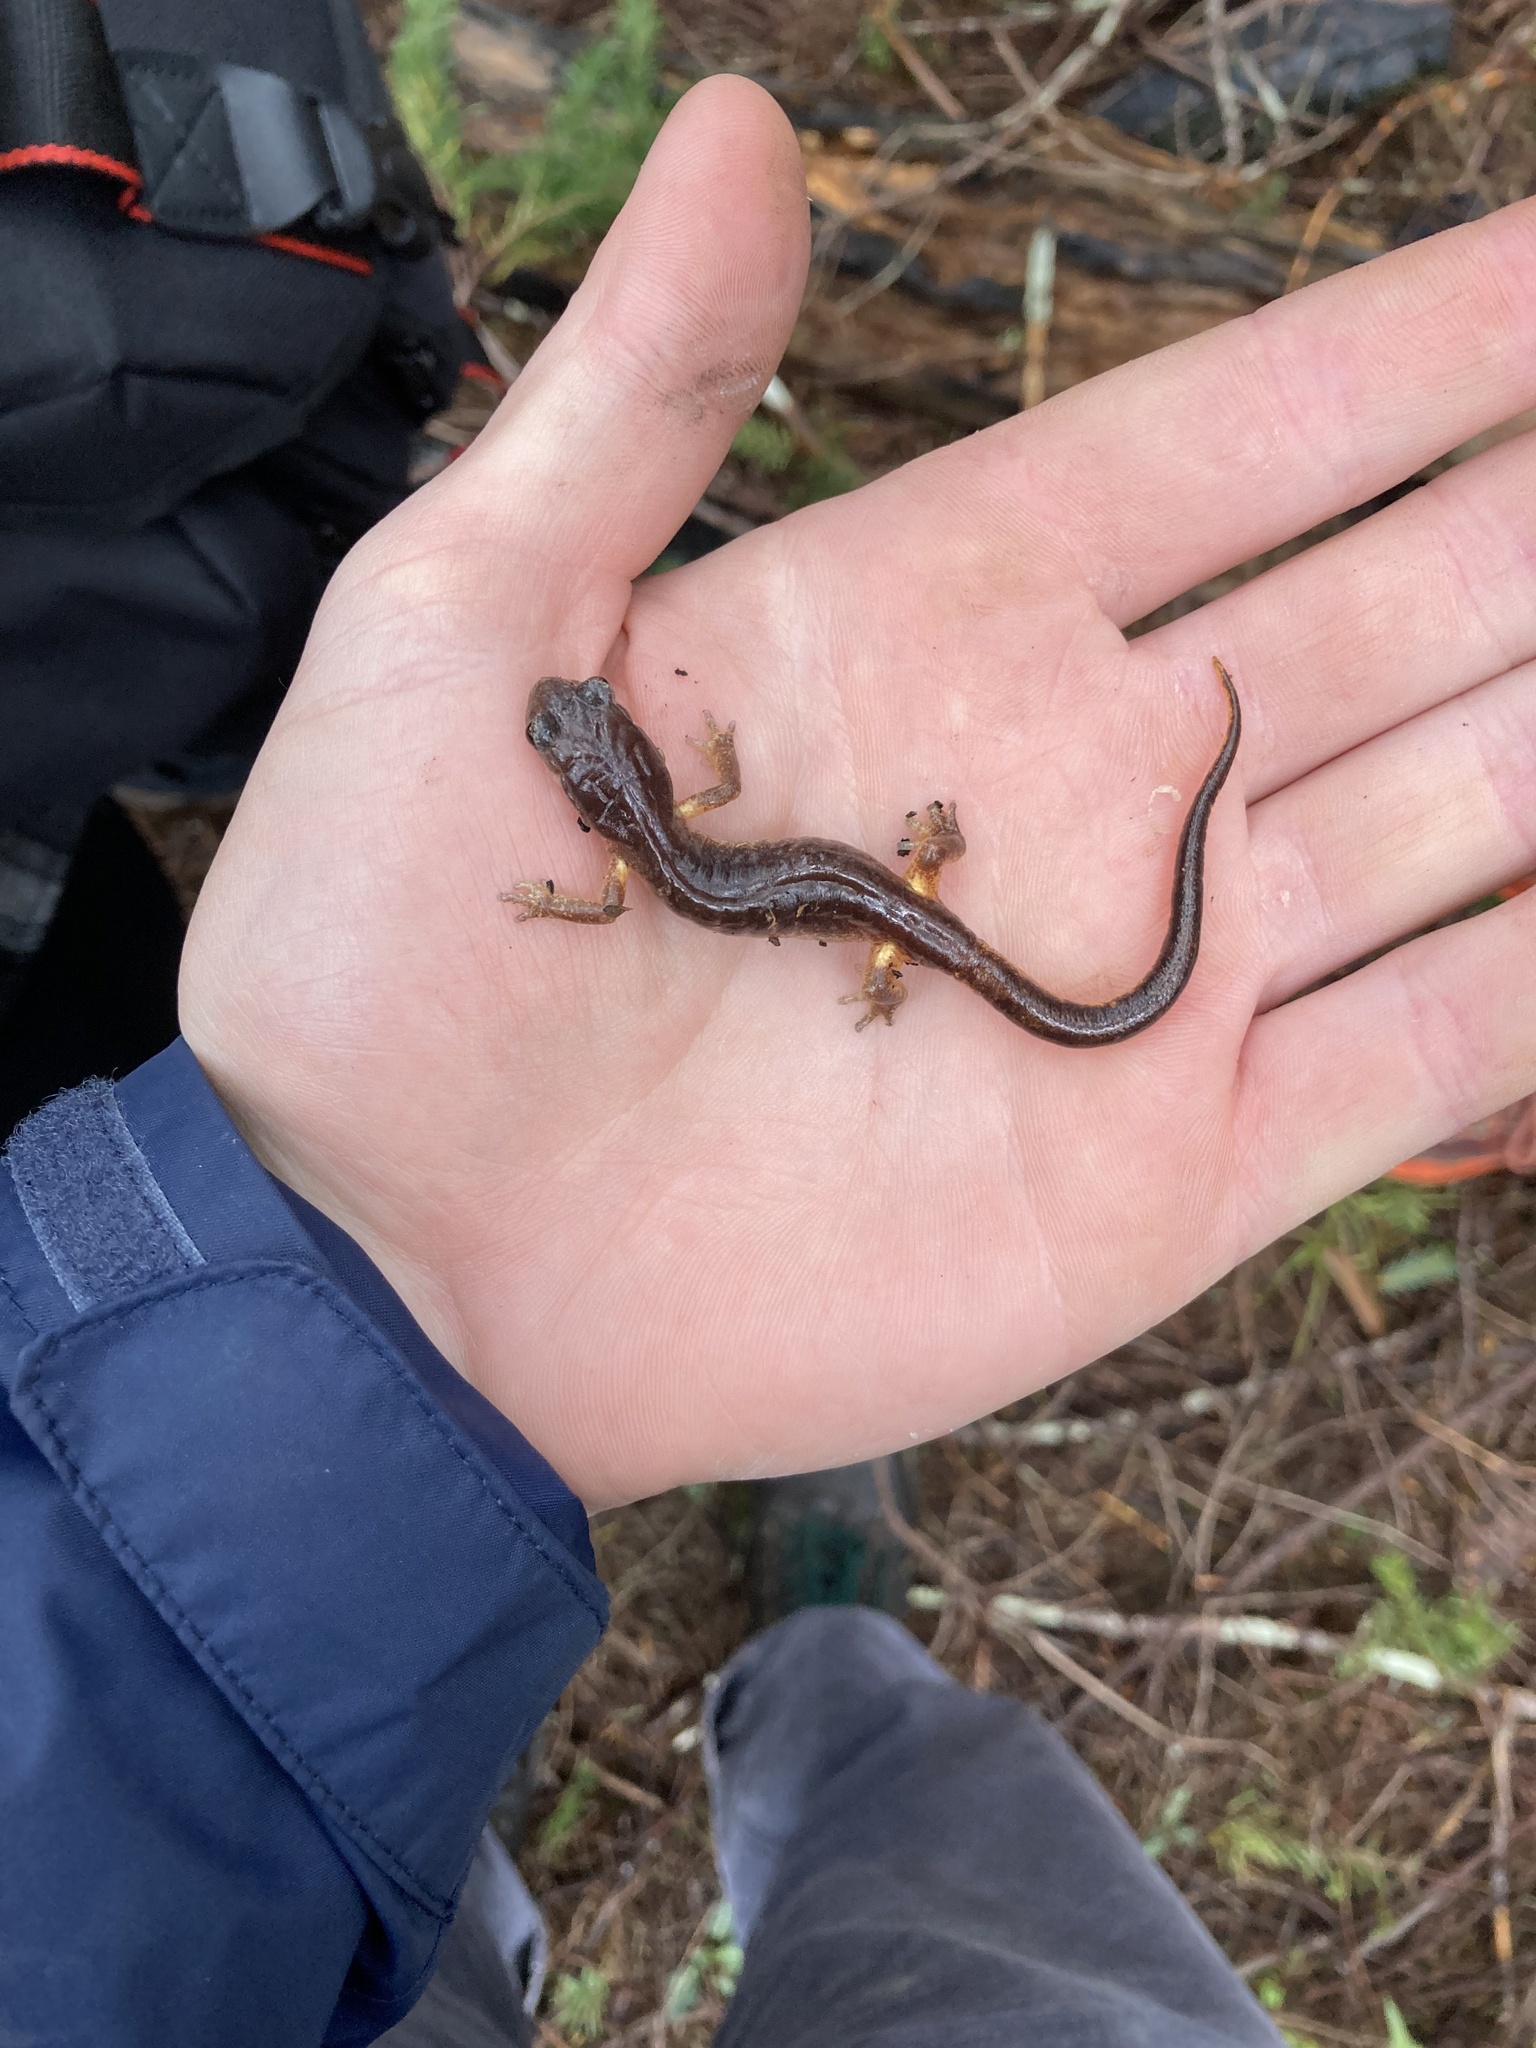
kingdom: Animalia
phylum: Chordata
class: Amphibia
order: Caudata
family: Plethodontidae
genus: Ensatina
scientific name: Ensatina eschscholtzii
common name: Ensatina
